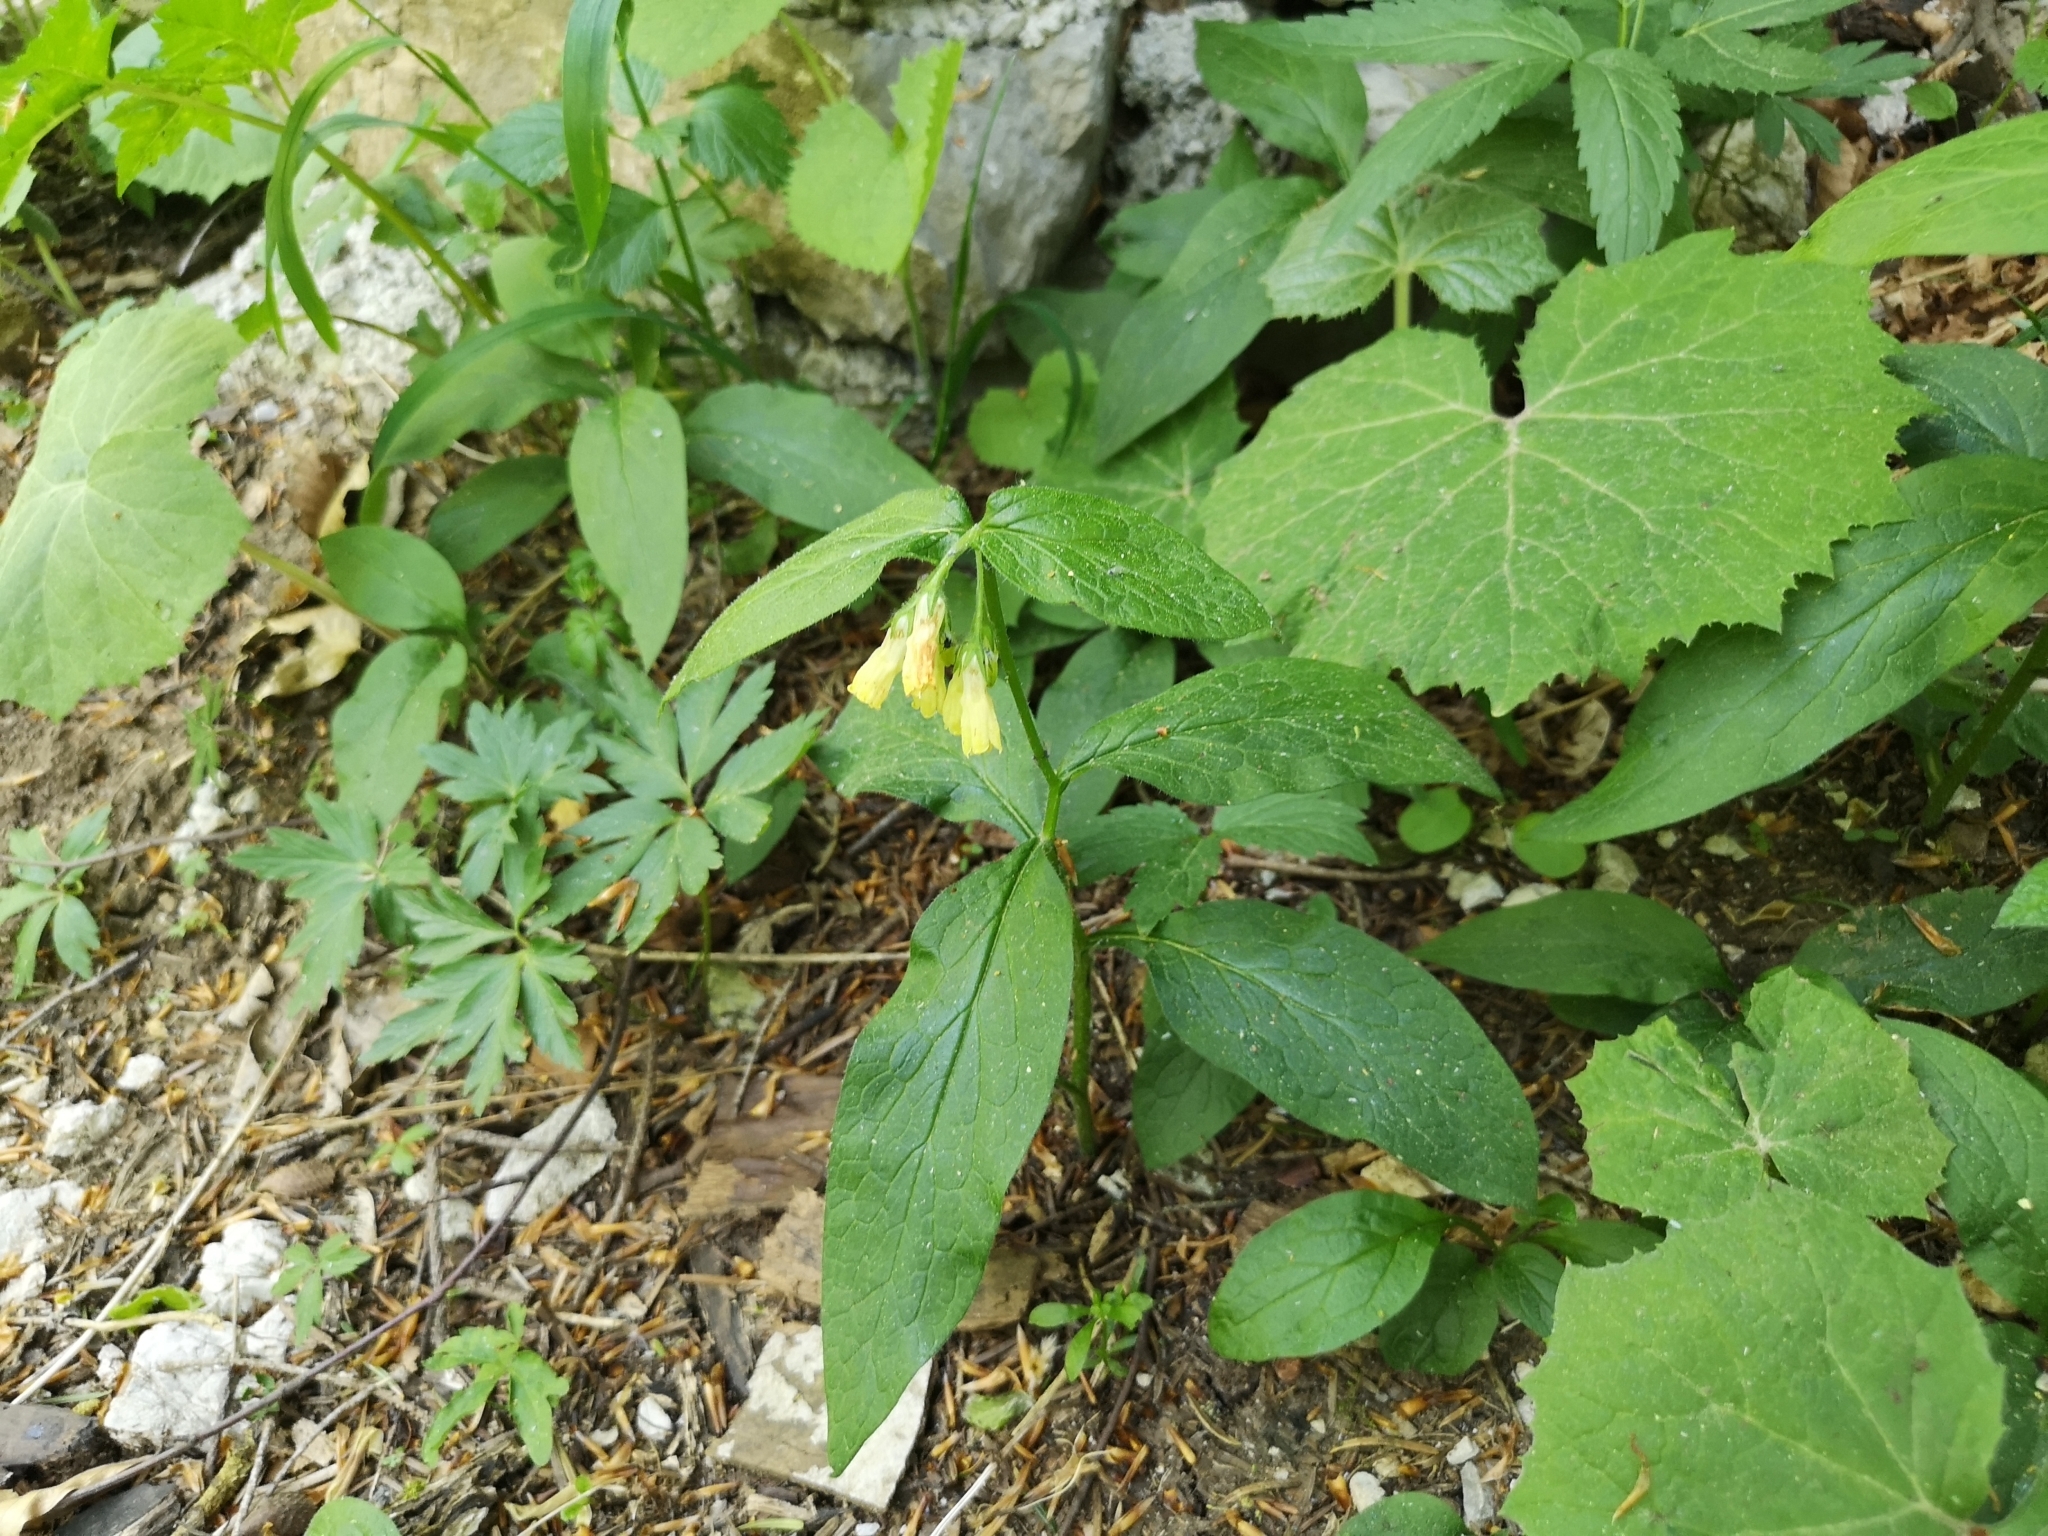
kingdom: Plantae
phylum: Tracheophyta
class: Magnoliopsida
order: Boraginales
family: Boraginaceae
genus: Symphytum
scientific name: Symphytum tuberosum
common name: Tuberous comfrey
